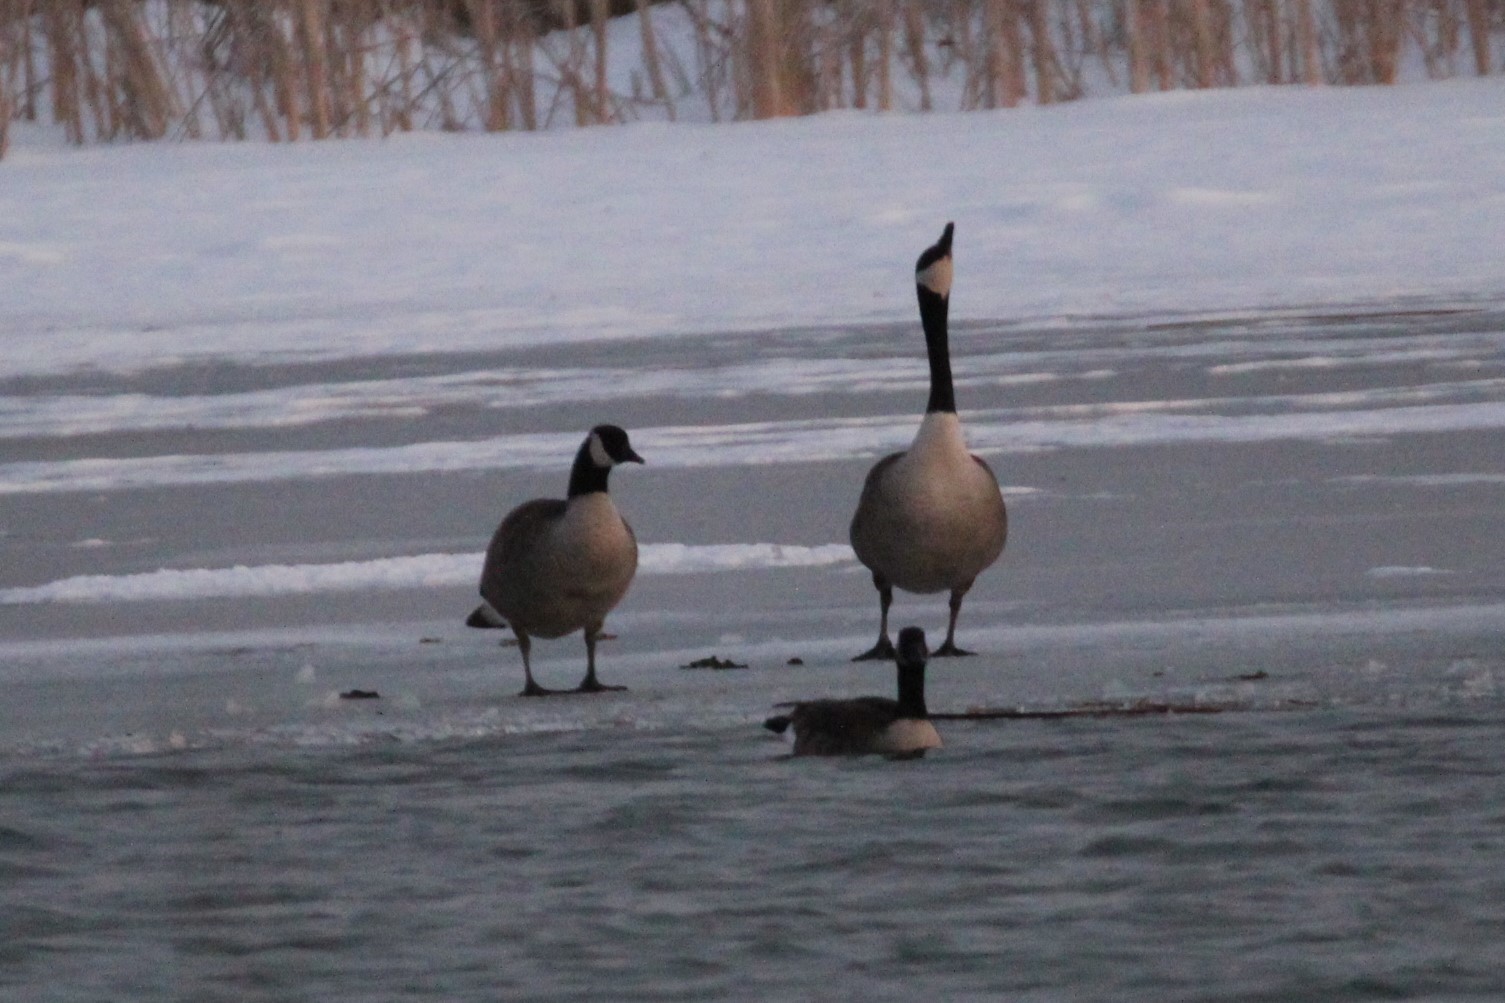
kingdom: Animalia
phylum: Chordata
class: Aves
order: Anseriformes
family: Anatidae
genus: Branta
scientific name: Branta canadensis
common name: Canada goose
